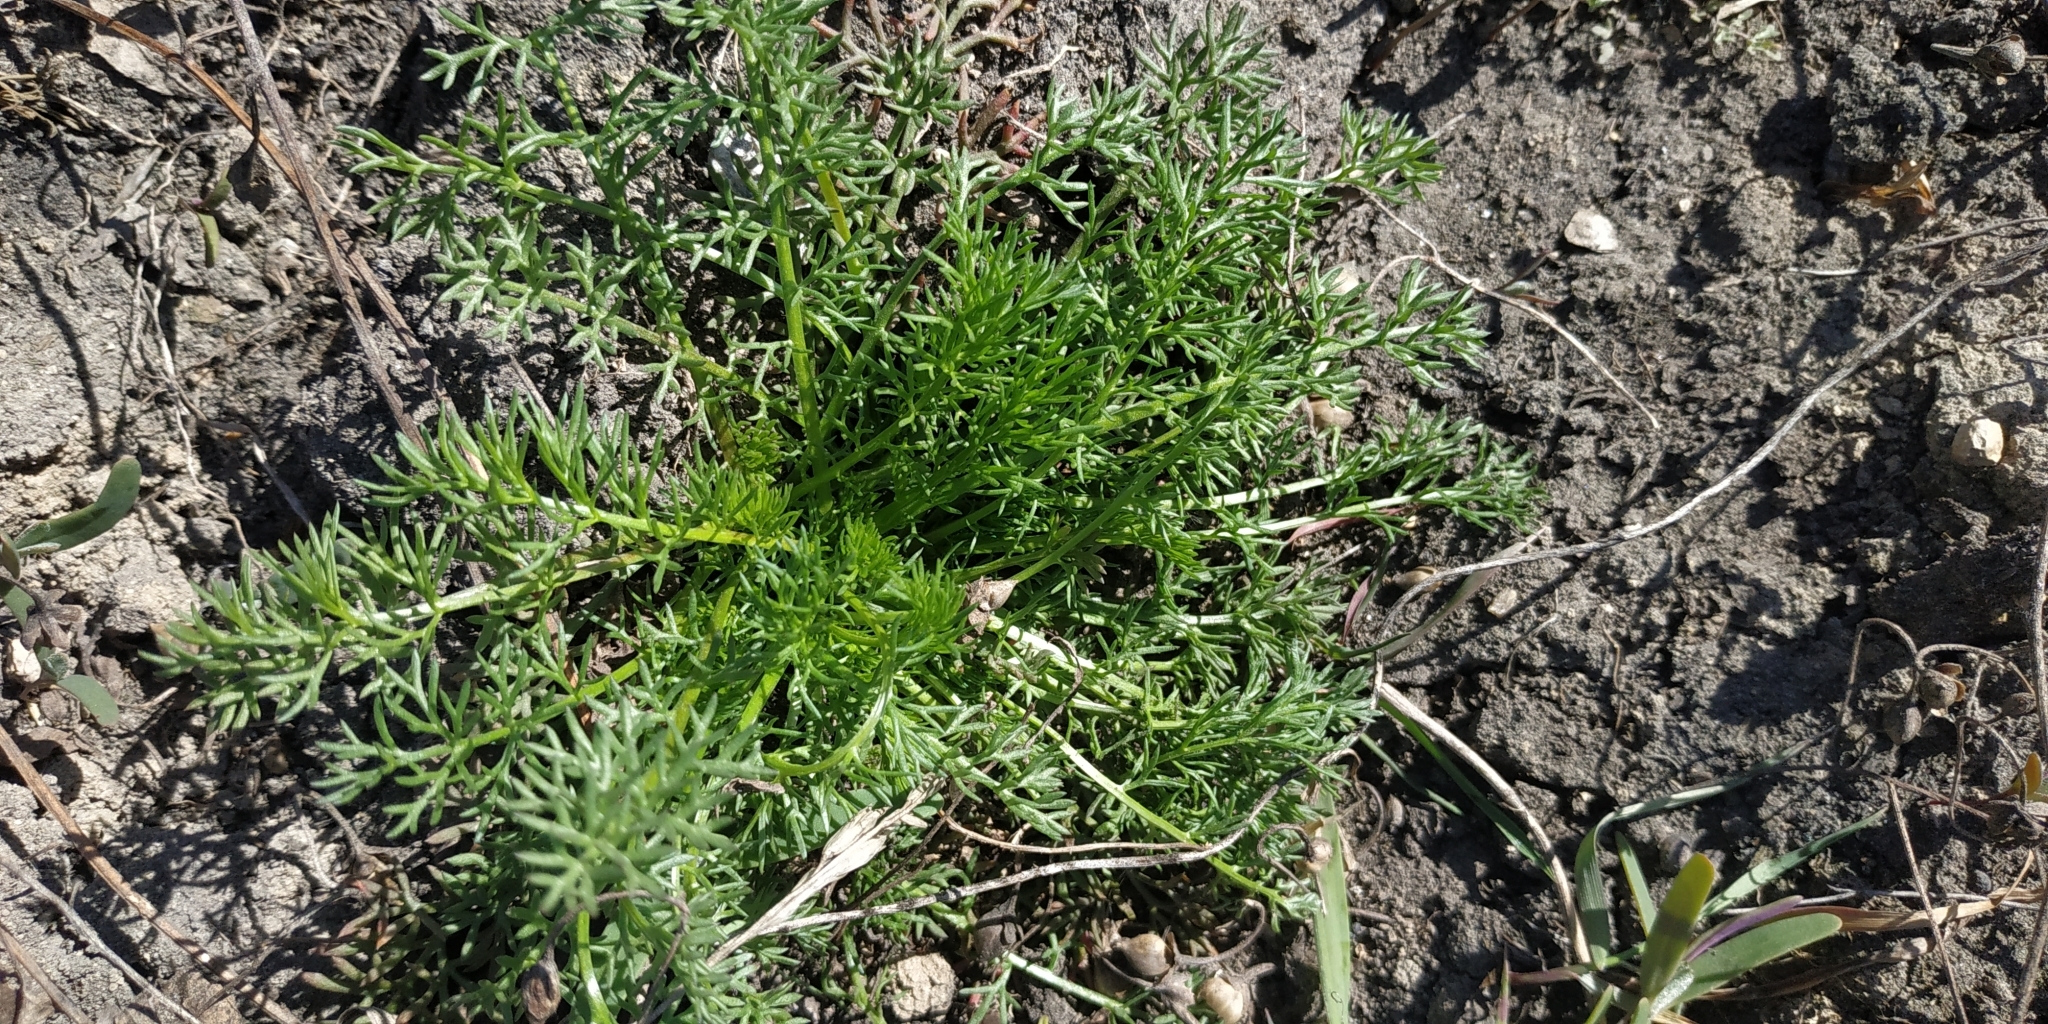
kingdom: Plantae
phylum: Tracheophyta
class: Magnoliopsida
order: Asterales
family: Asteraceae
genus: Tripleurospermum
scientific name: Tripleurospermum inodorum
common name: Scentless mayweed
